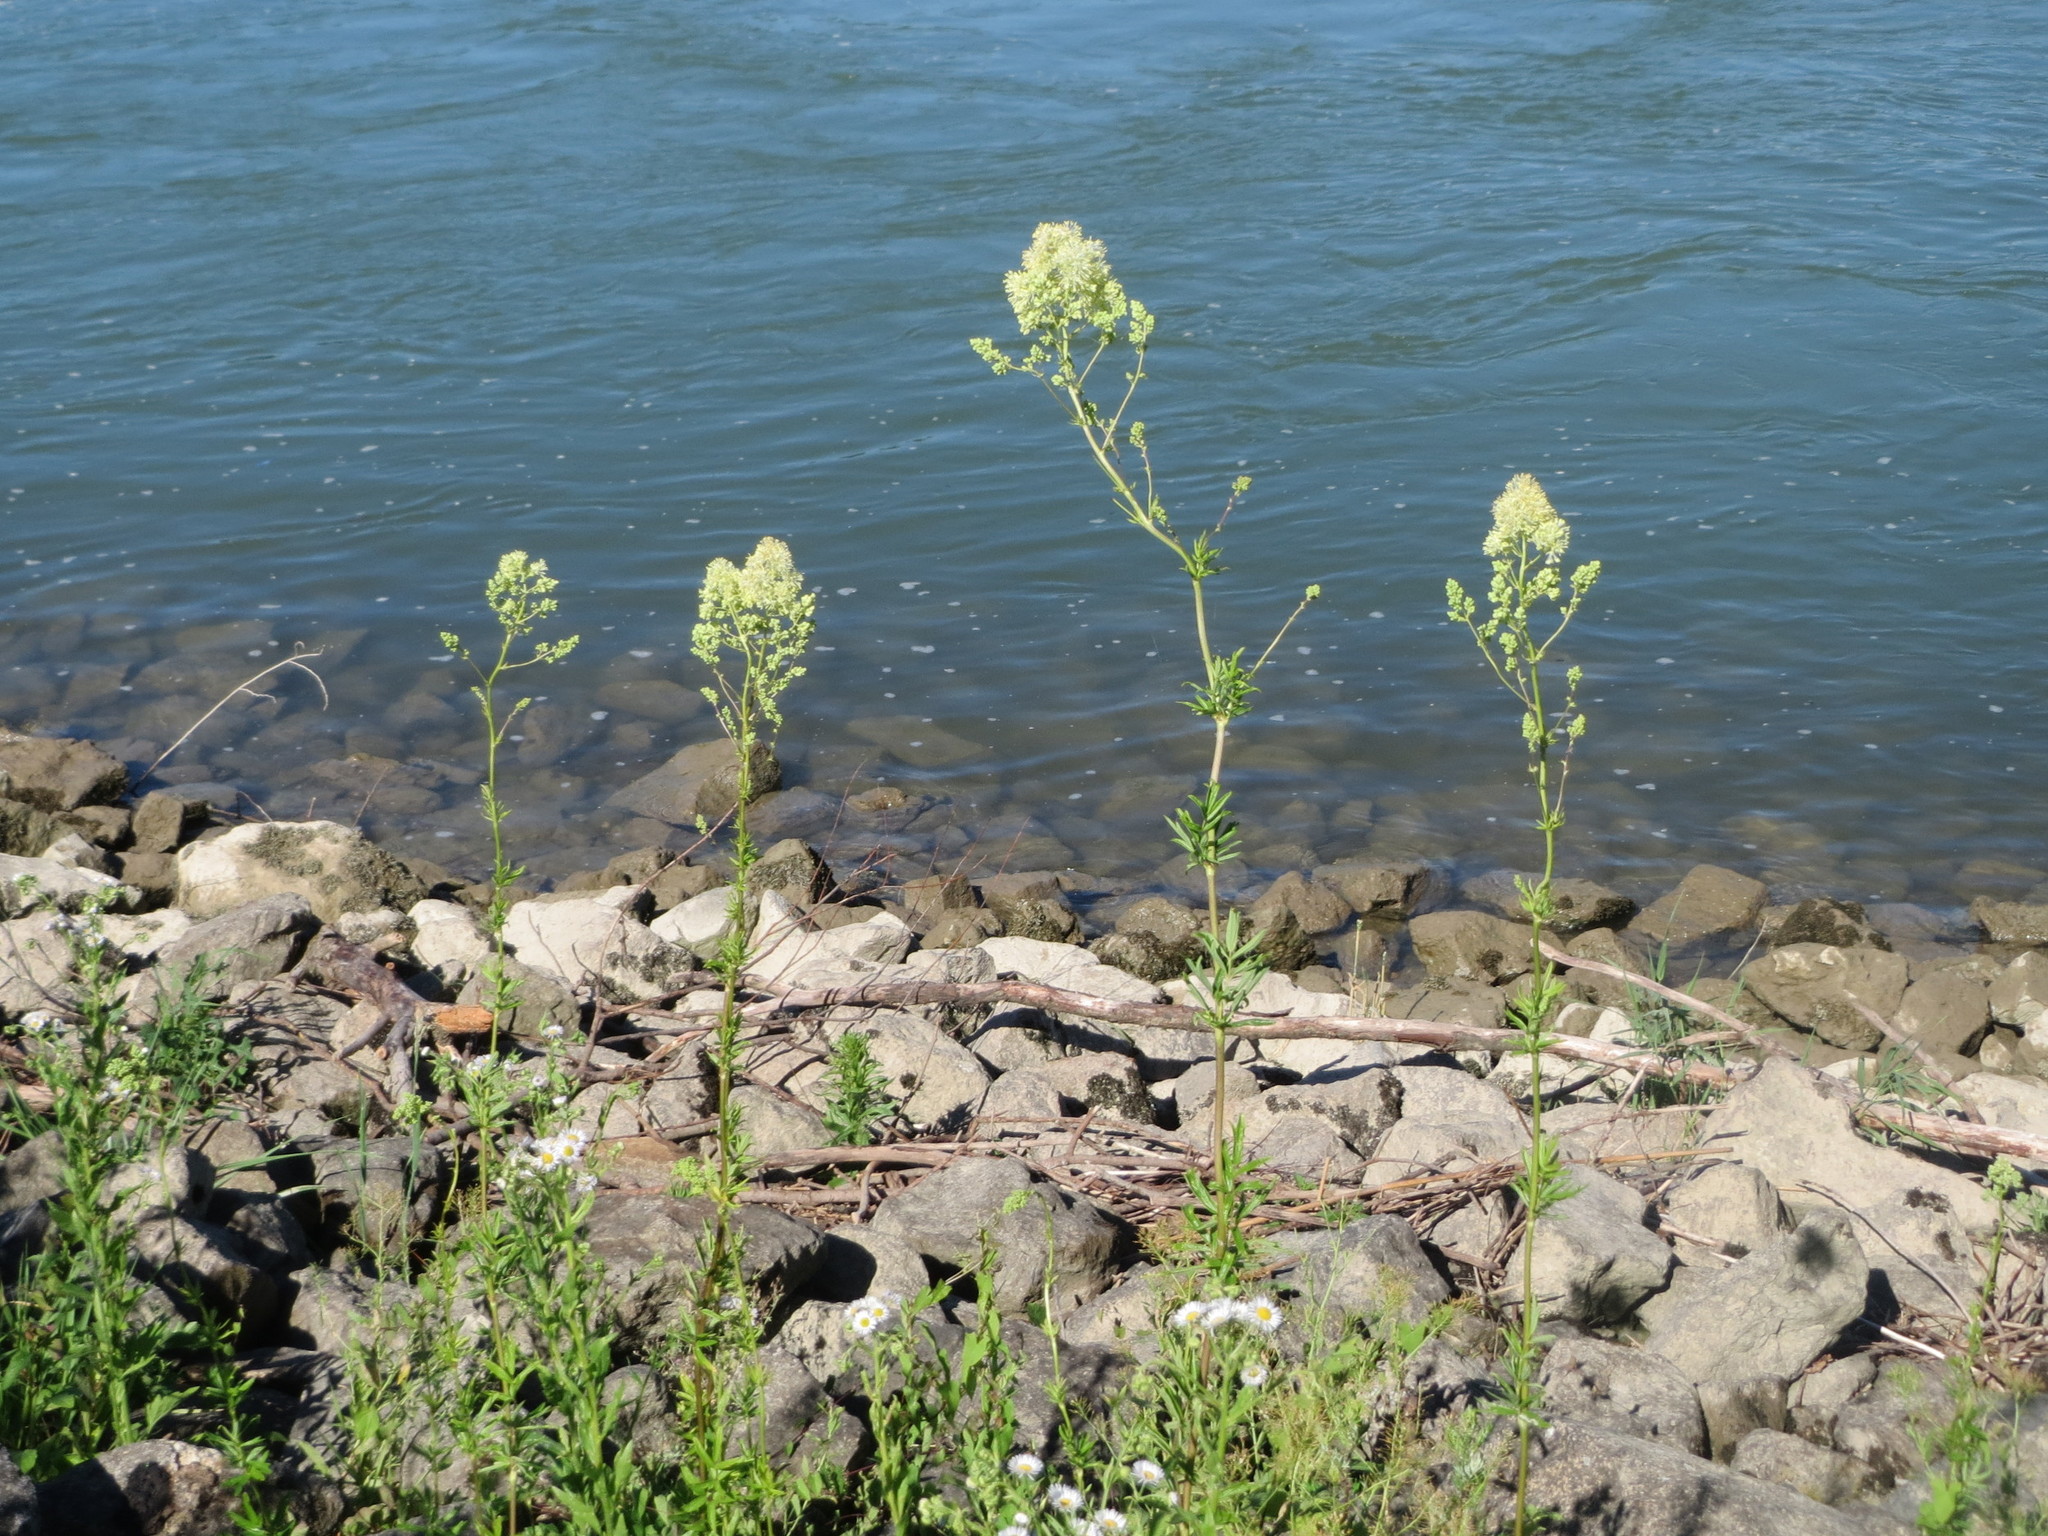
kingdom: Plantae
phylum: Tracheophyta
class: Magnoliopsida
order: Ranunculales
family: Ranunculaceae
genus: Thalictrum
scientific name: Thalictrum flavum
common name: Common meadow-rue
